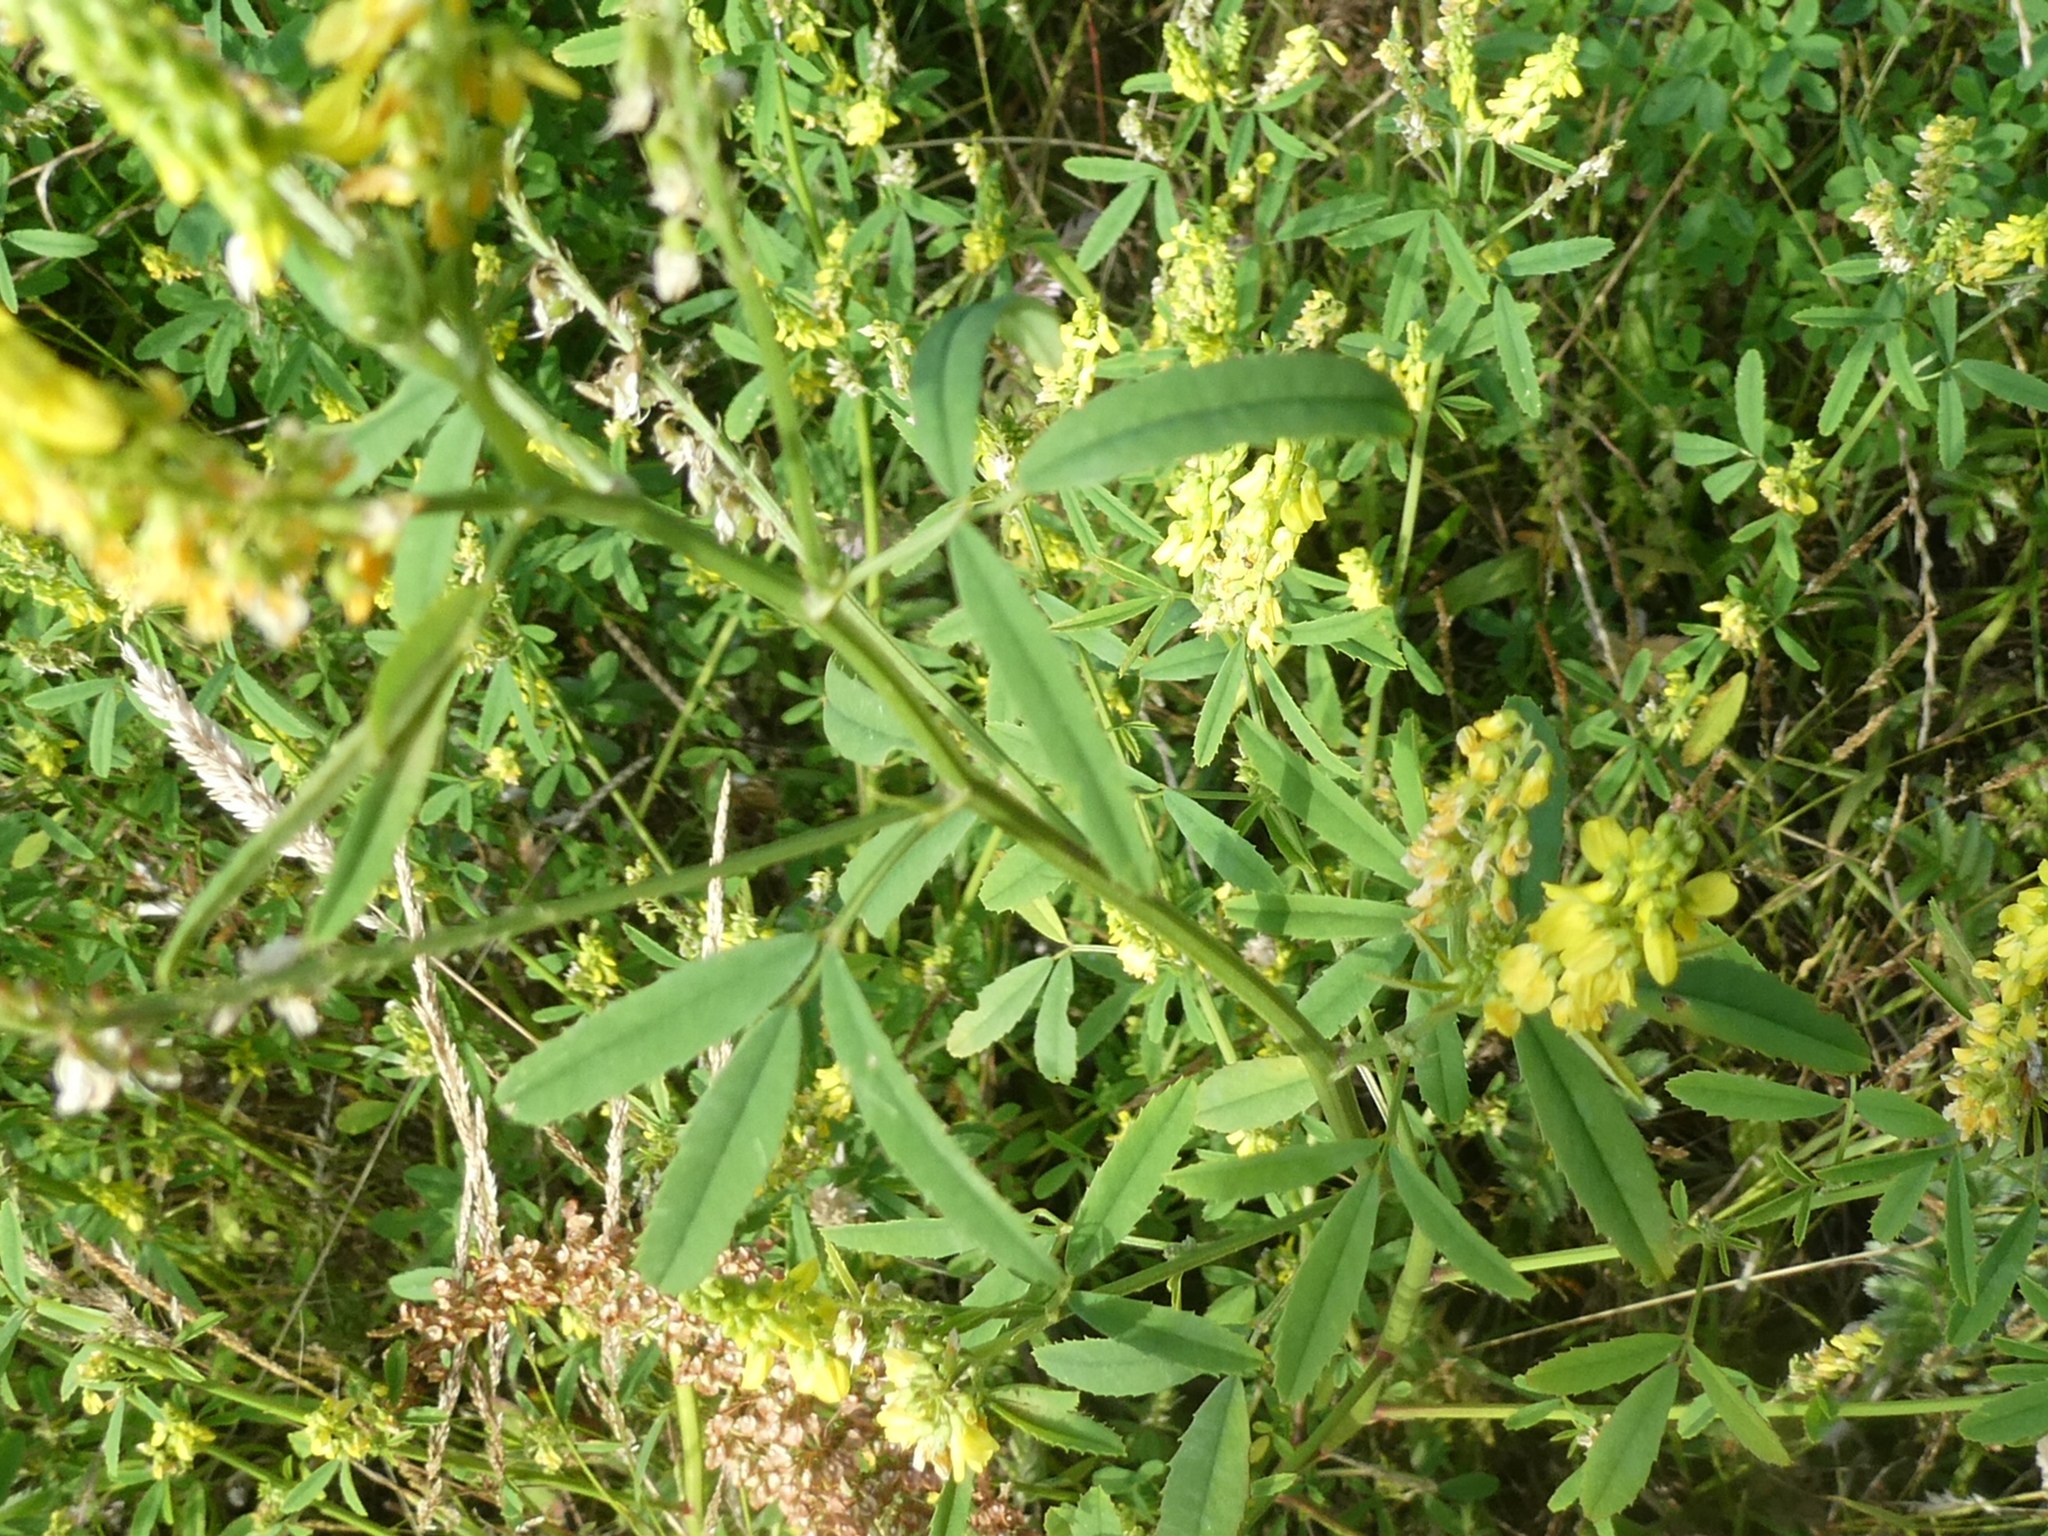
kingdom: Plantae
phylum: Tracheophyta
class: Magnoliopsida
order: Fabales
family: Fabaceae
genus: Melilotus
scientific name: Melilotus altissimus
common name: Tall melilot
